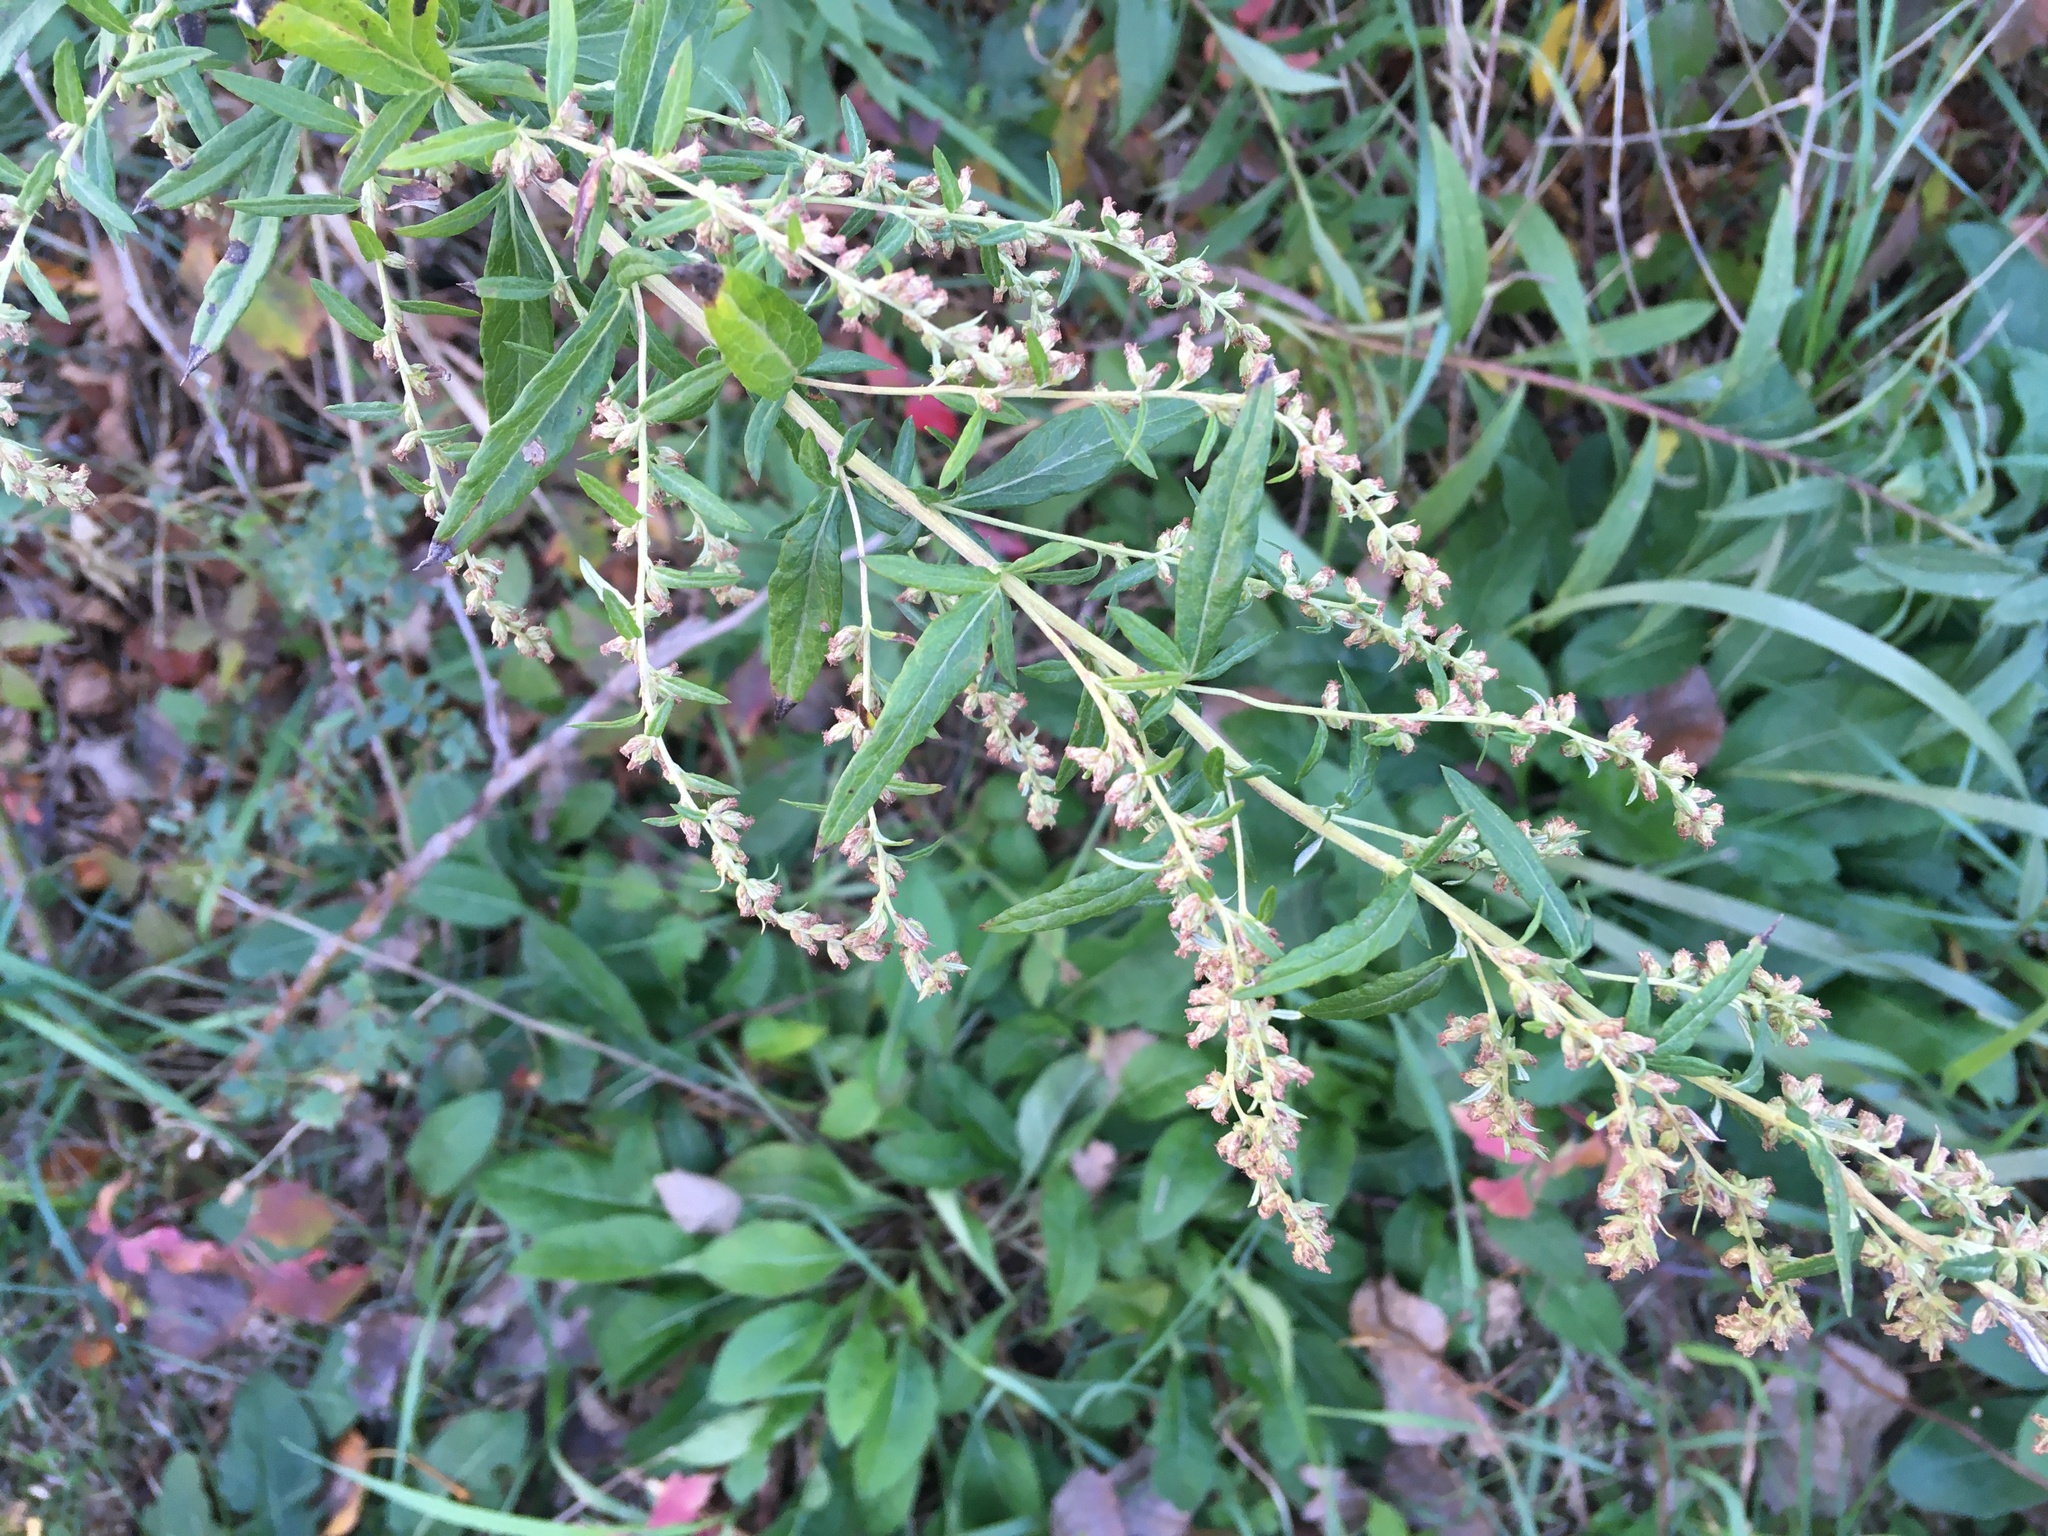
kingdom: Plantae
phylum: Tracheophyta
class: Magnoliopsida
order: Asterales
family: Asteraceae
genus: Artemisia
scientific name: Artemisia vulgaris
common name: Mugwort
